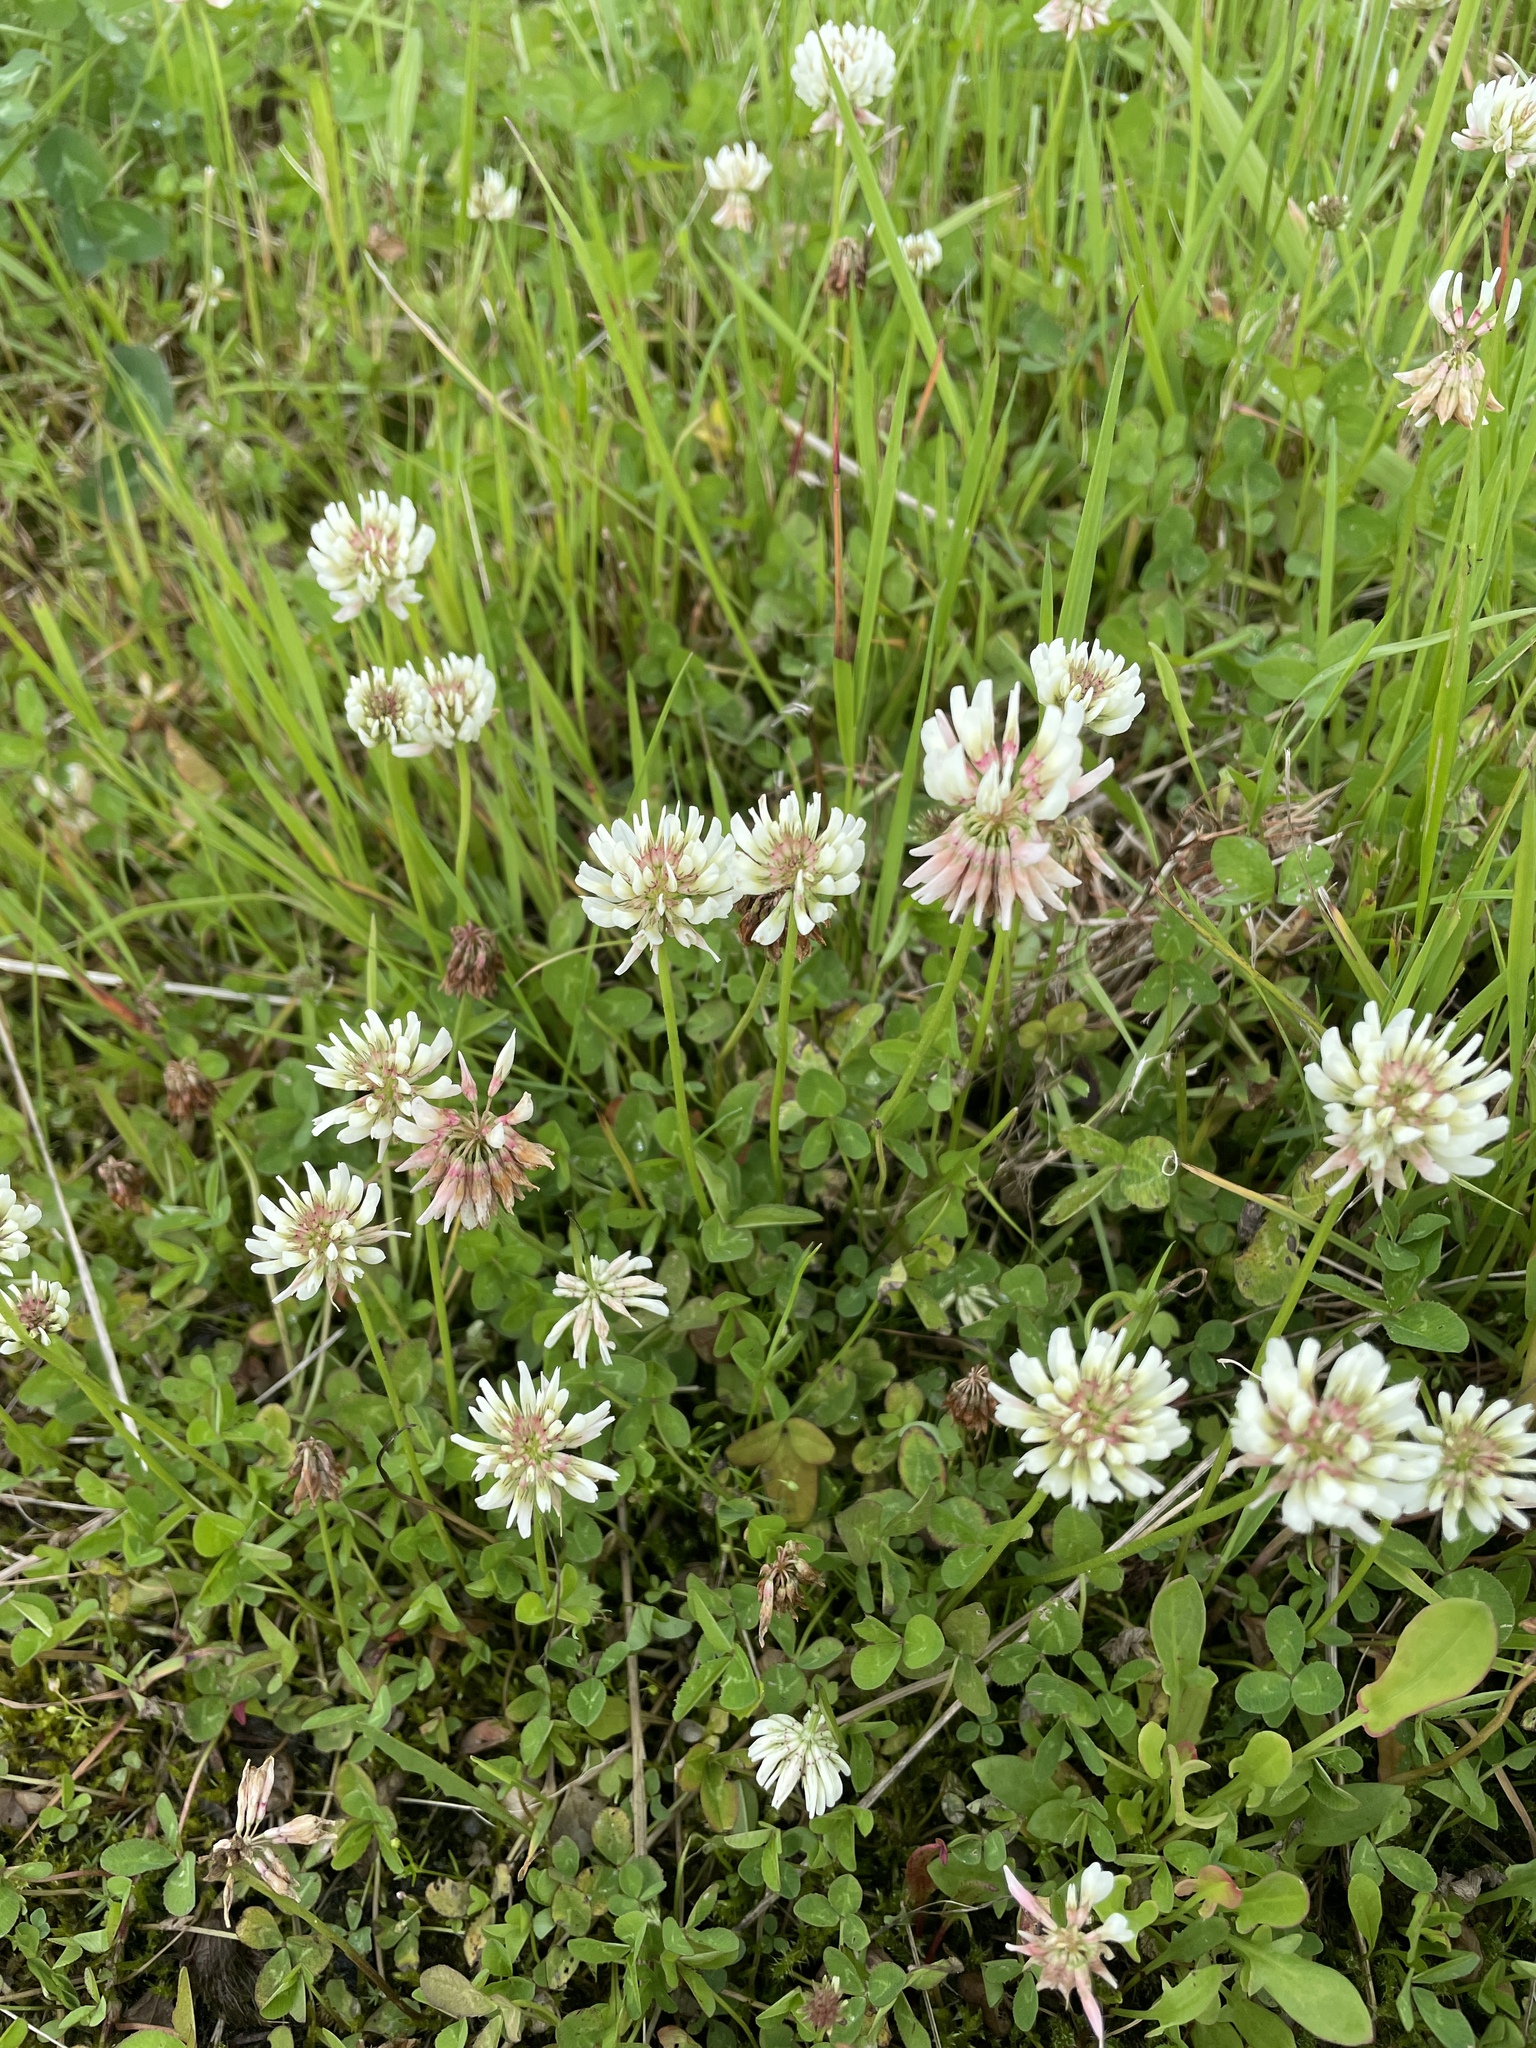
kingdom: Plantae
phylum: Tracheophyta
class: Magnoliopsida
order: Fabales
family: Fabaceae
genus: Trifolium
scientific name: Trifolium repens
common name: White clover
